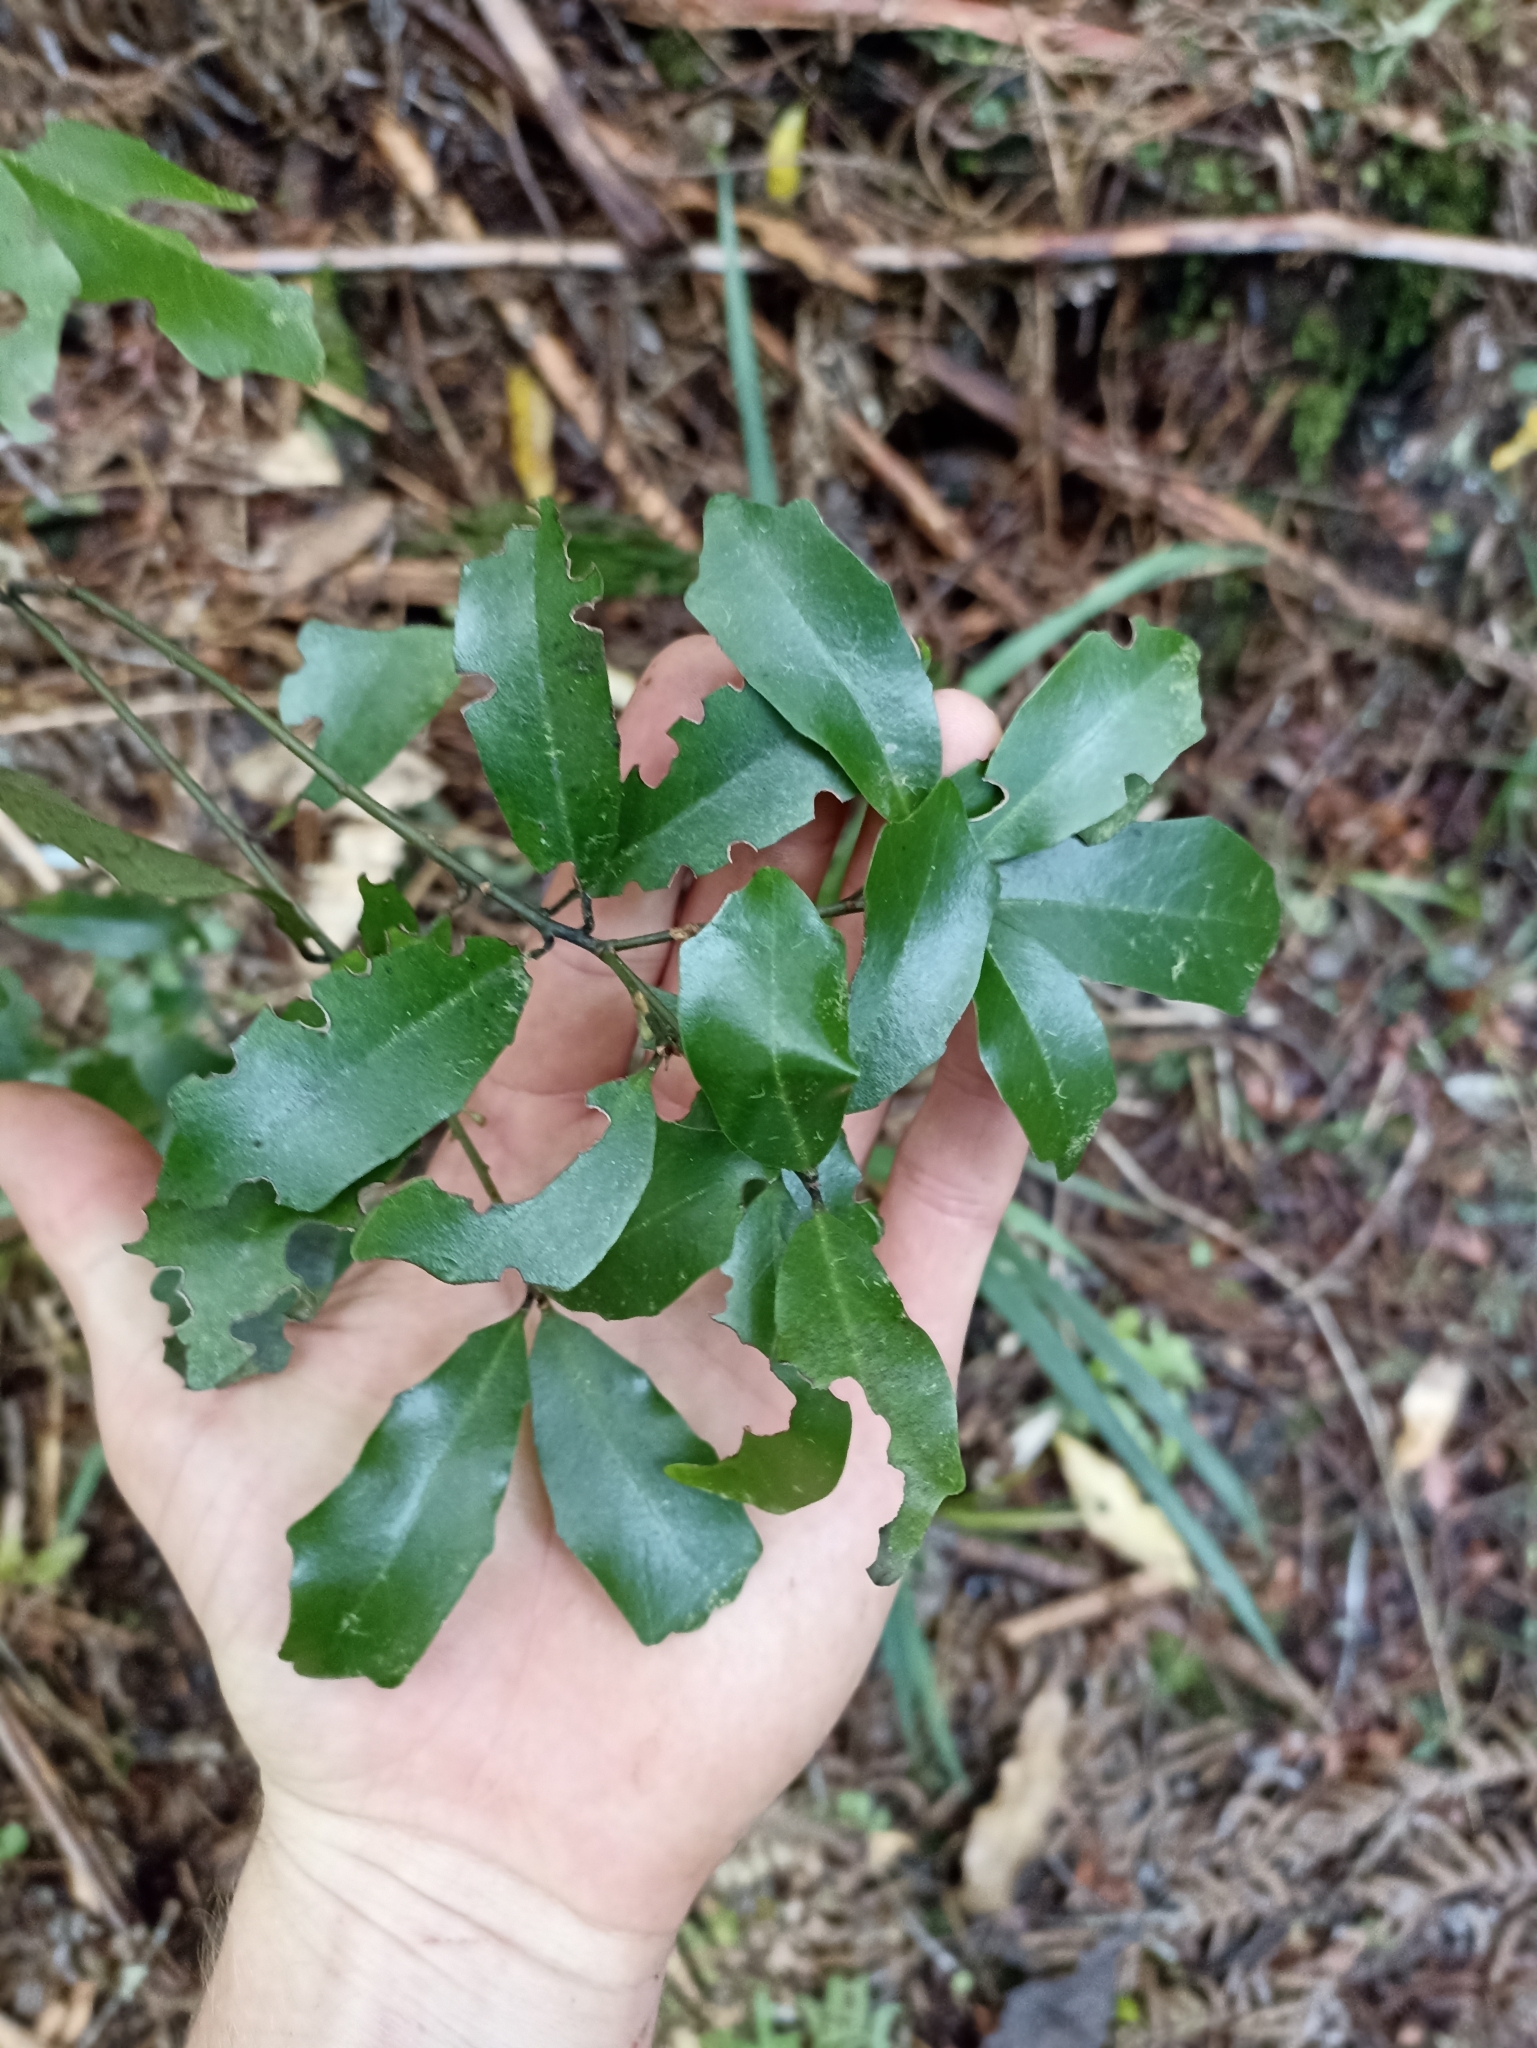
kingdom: Plantae
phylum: Tracheophyta
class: Magnoliopsida
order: Asterales
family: Alseuosmiaceae
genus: Alseuosmia
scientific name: Alseuosmia quercifolia
